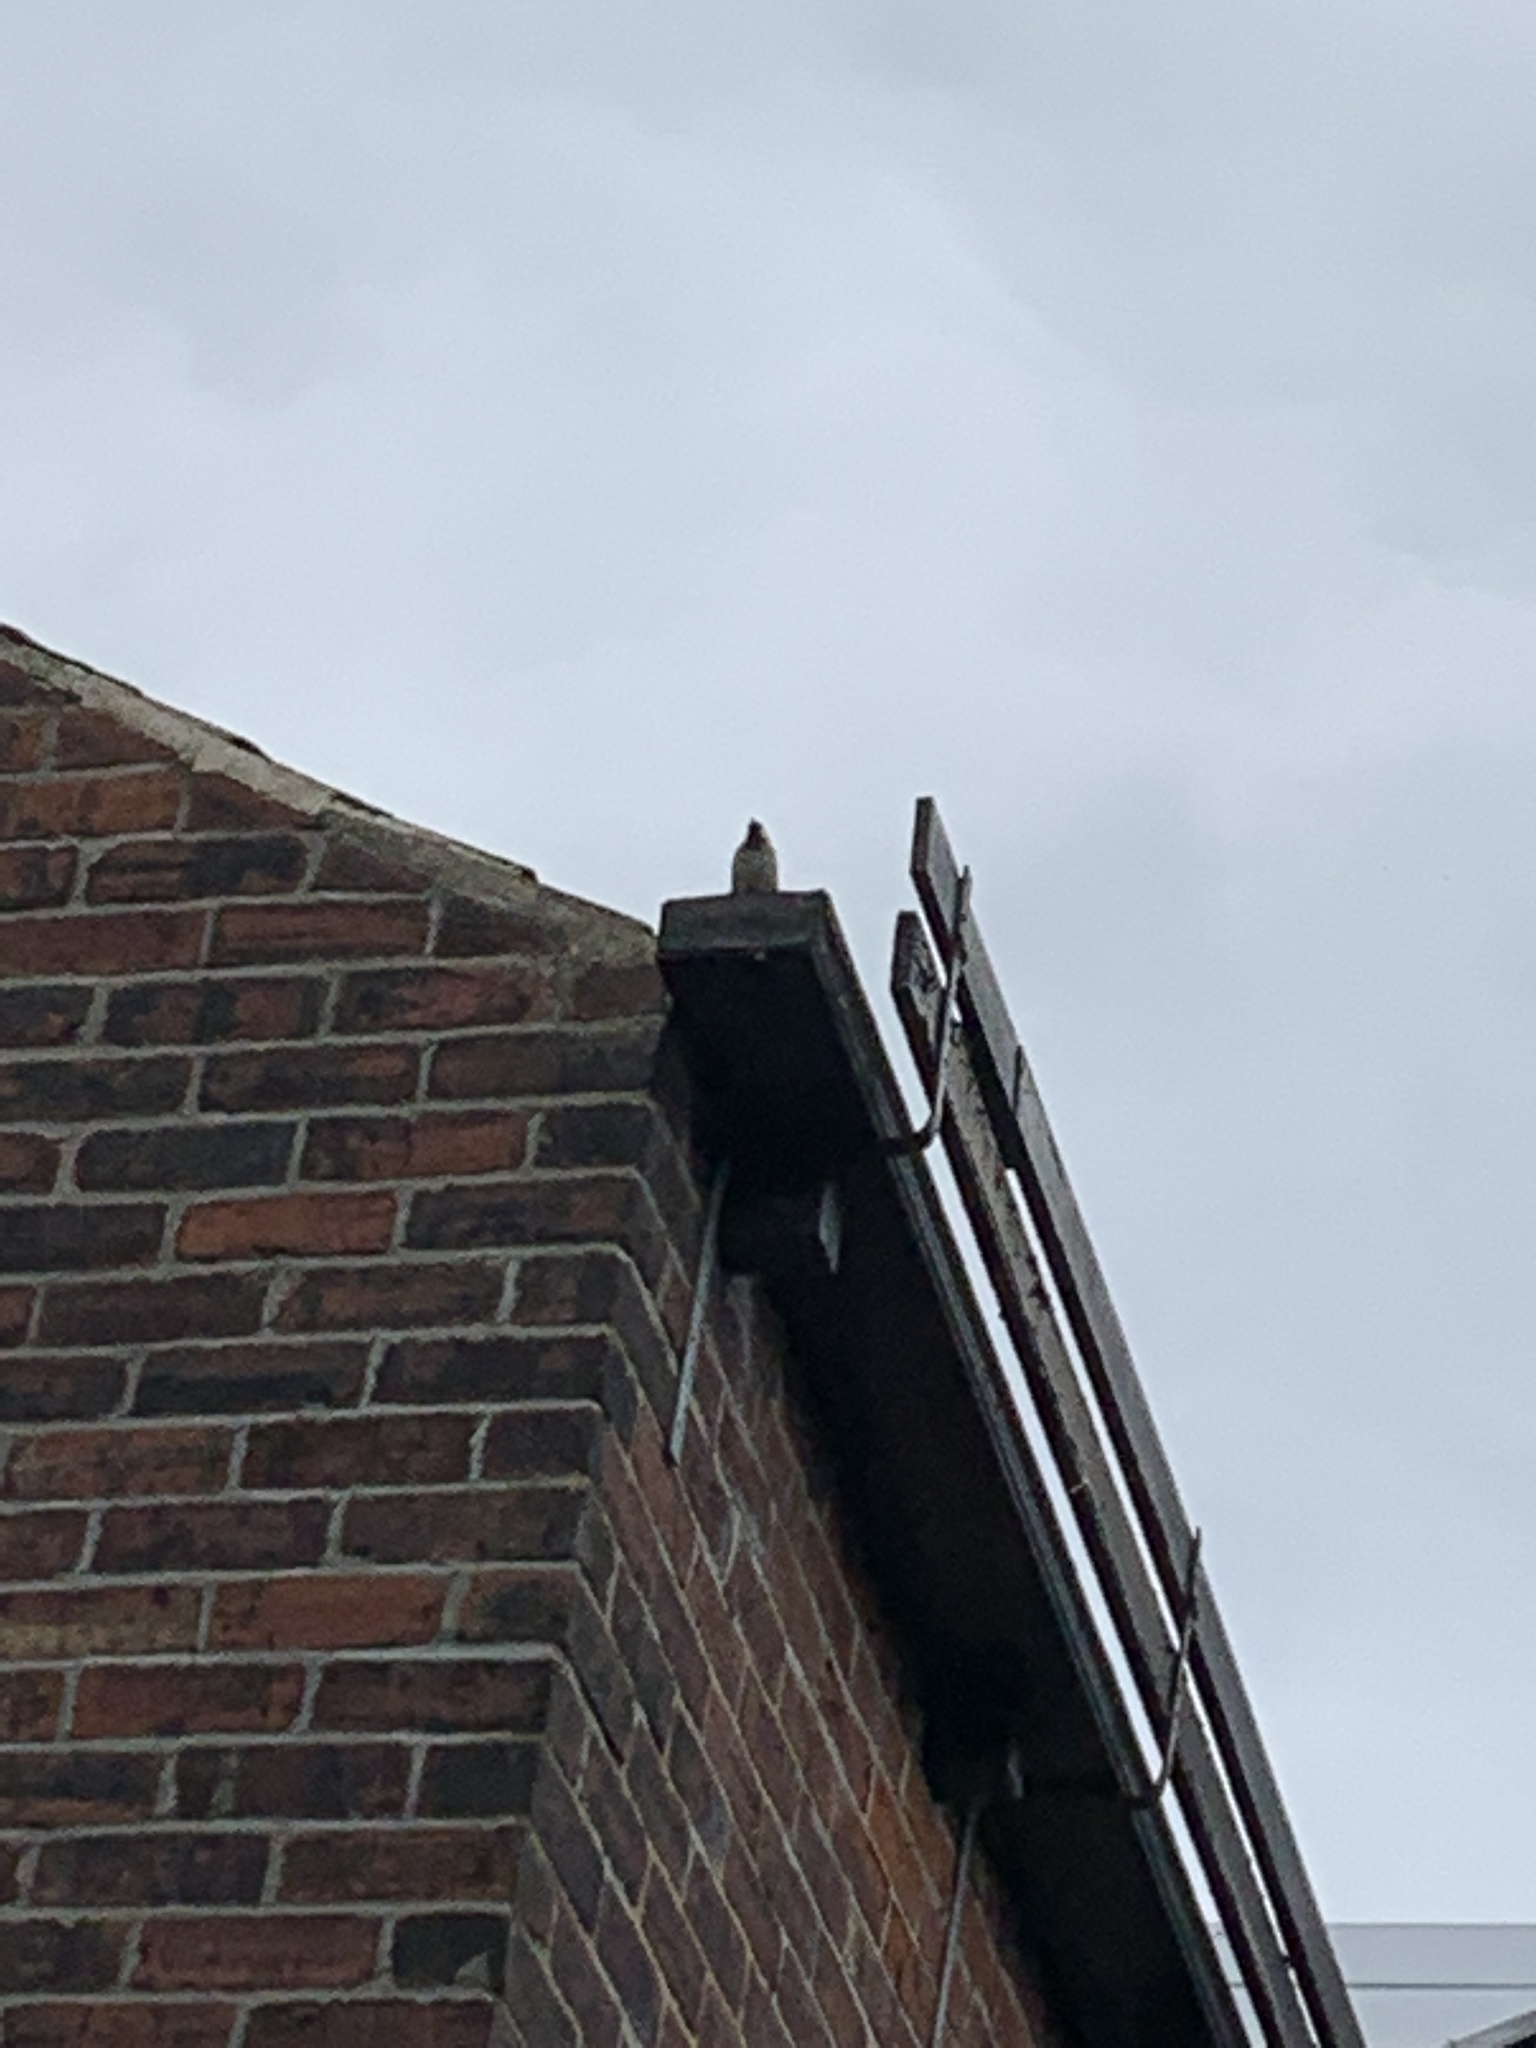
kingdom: Animalia
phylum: Chordata
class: Aves
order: Passeriformes
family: Passeridae
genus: Passer
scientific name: Passer domesticus
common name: House sparrow
